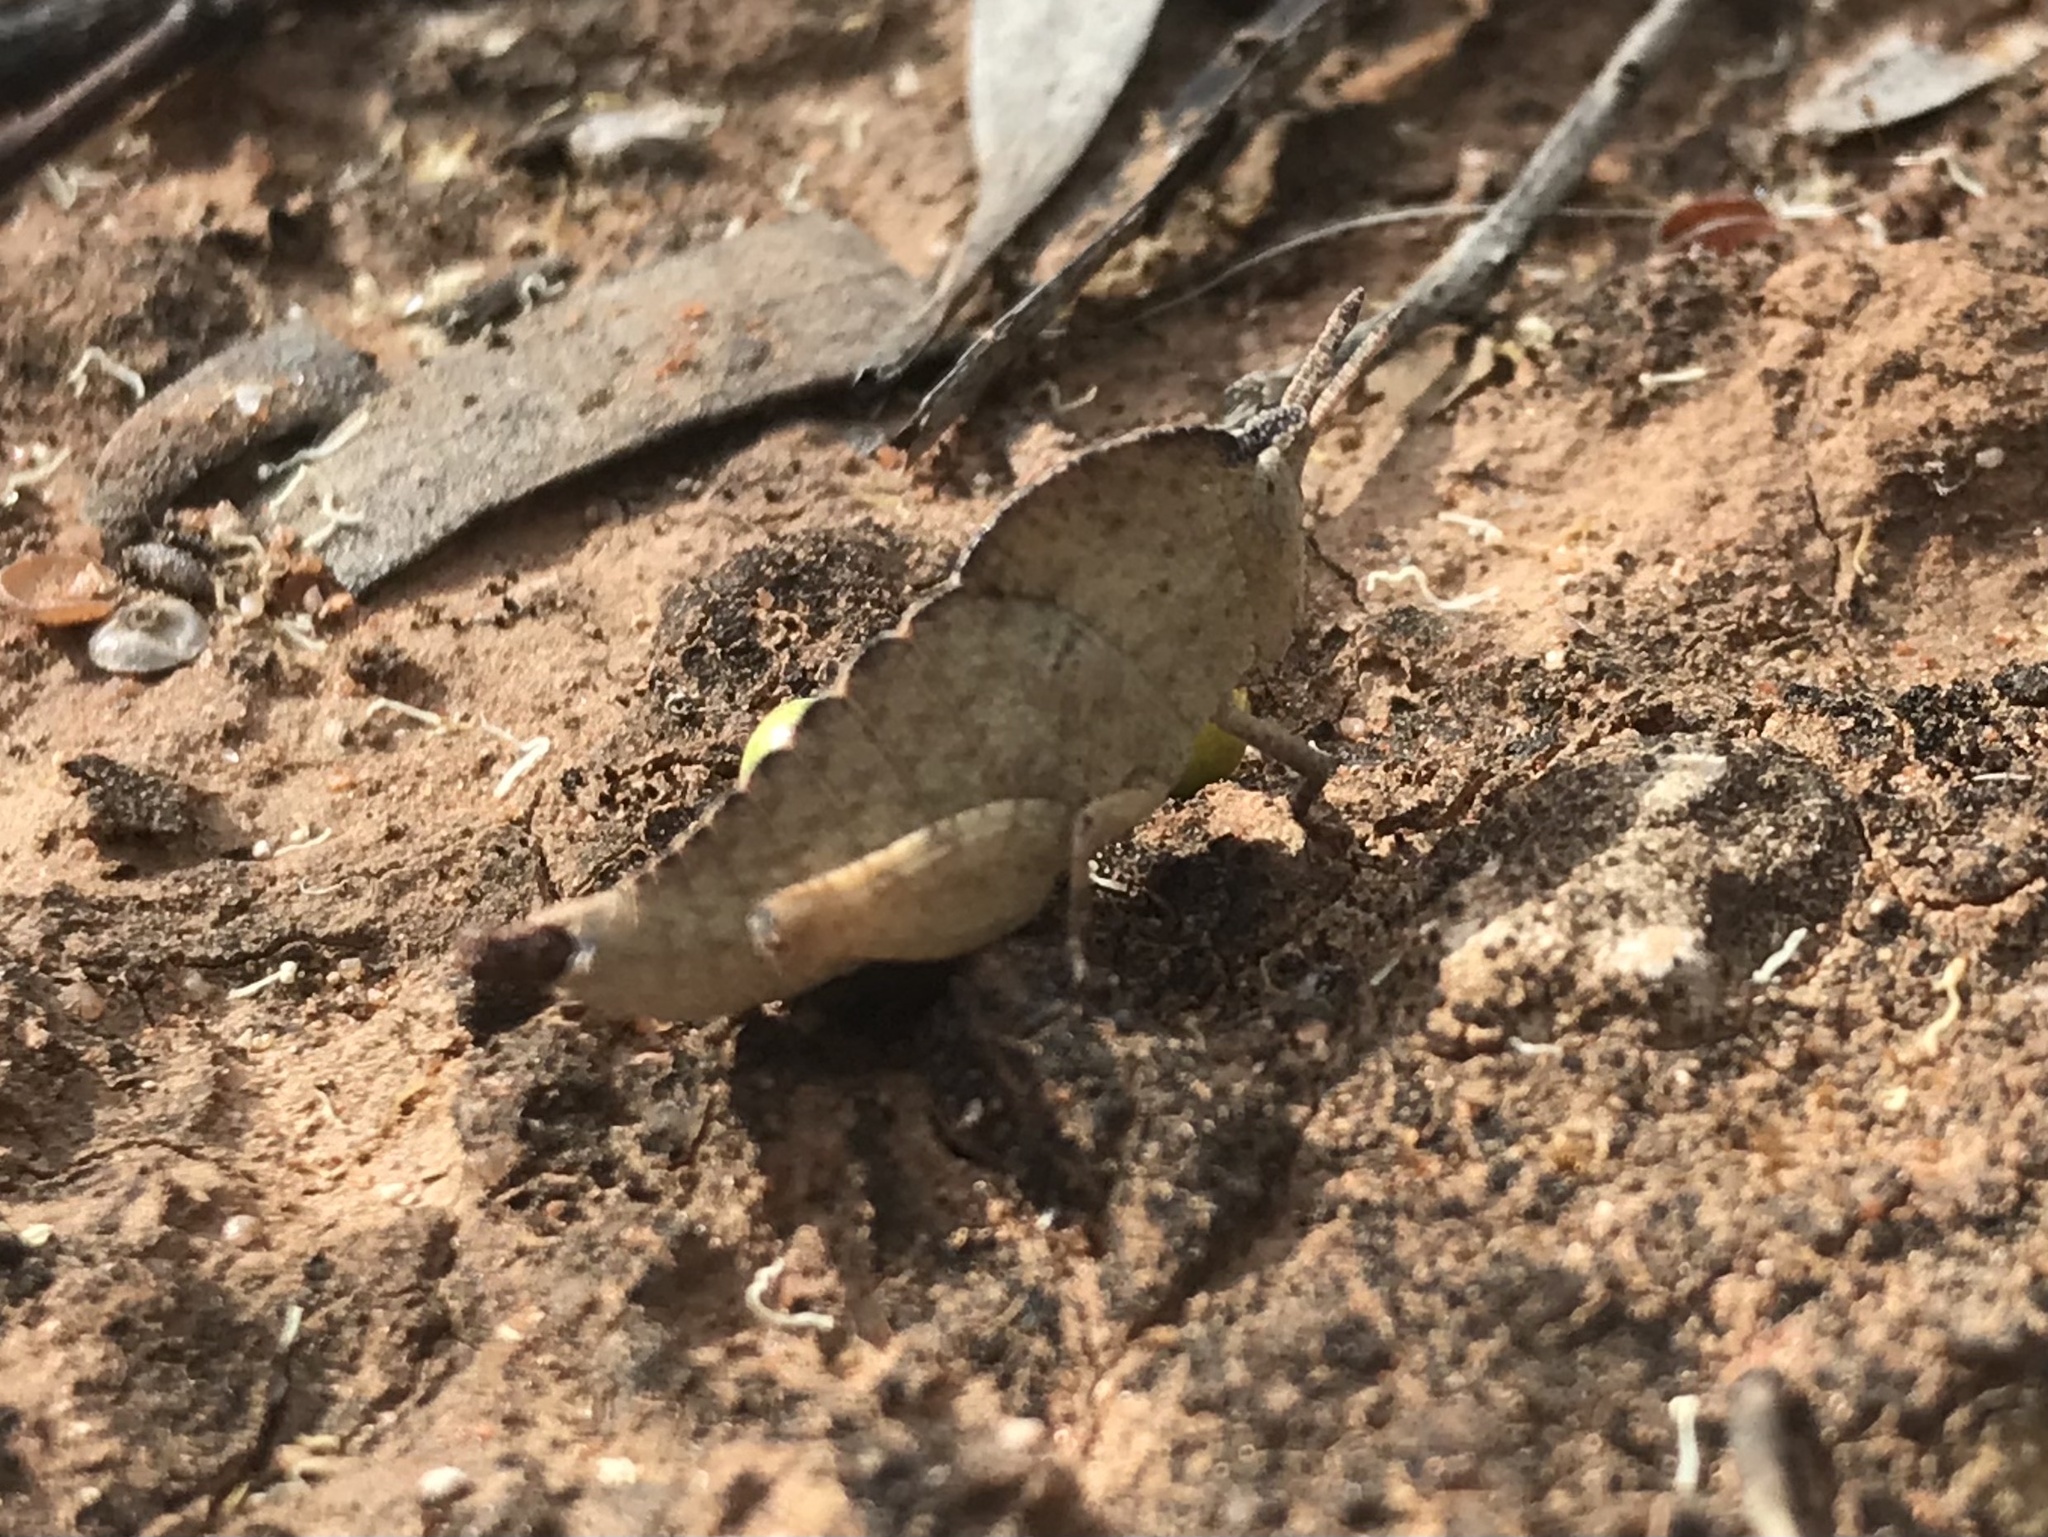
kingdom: Animalia
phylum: Arthropoda
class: Insecta
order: Orthoptera
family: Acrididae
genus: Goniaea
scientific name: Goniaea australasiae
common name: Gumleaf grasshopper
